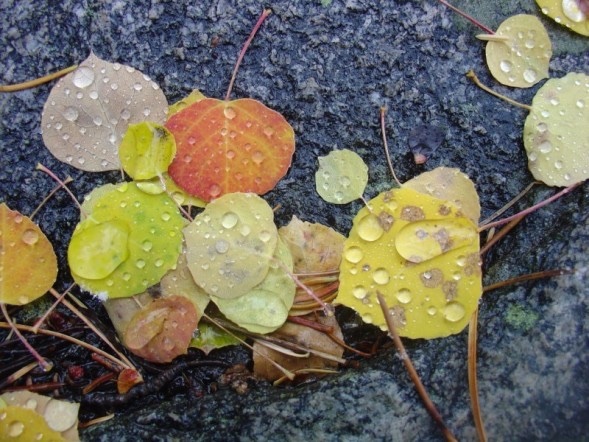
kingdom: Plantae
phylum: Tracheophyta
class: Magnoliopsida
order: Malpighiales
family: Salicaceae
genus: Populus
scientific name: Populus tremuloides
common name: Quaking aspen
